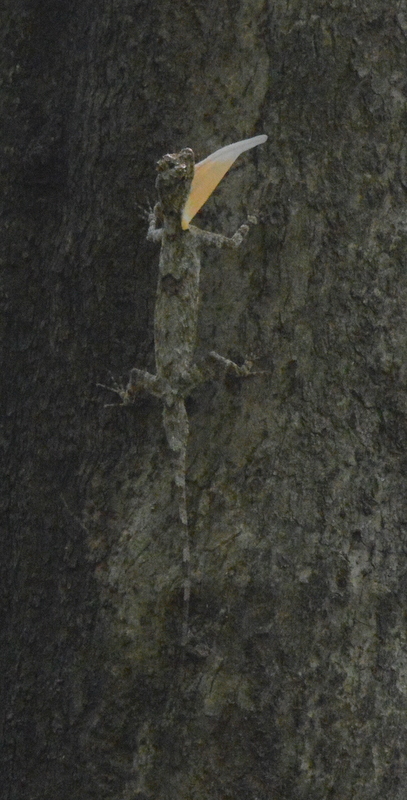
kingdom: Animalia
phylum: Chordata
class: Squamata
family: Agamidae
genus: Draco
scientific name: Draco maculatus
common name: Spotted flying dragon
